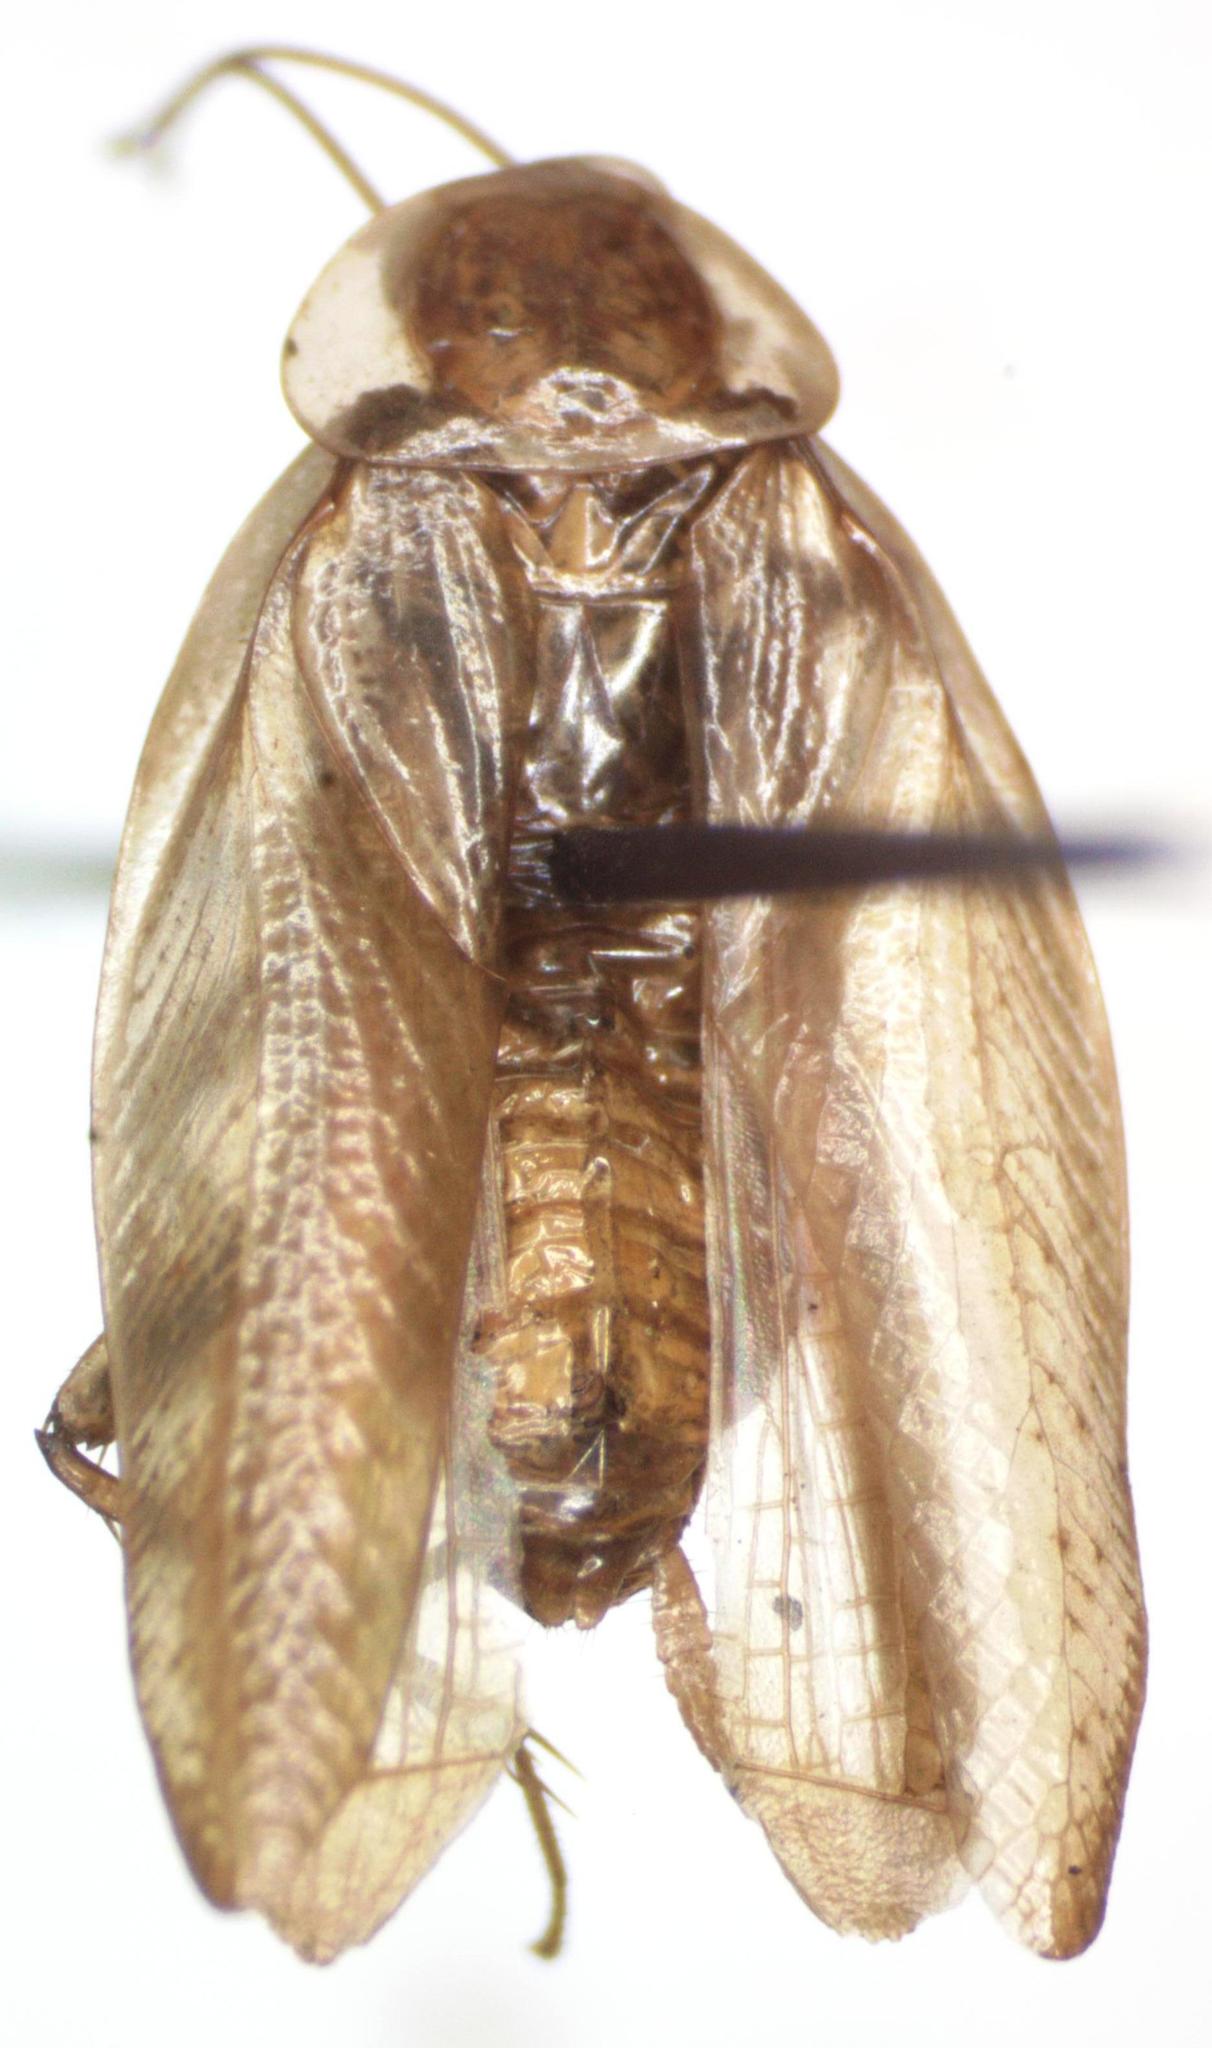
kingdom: Animalia
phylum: Arthropoda
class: Insecta
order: Blattodea
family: Ectobiidae
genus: Chorisoneura
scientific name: Chorisoneura translucida
